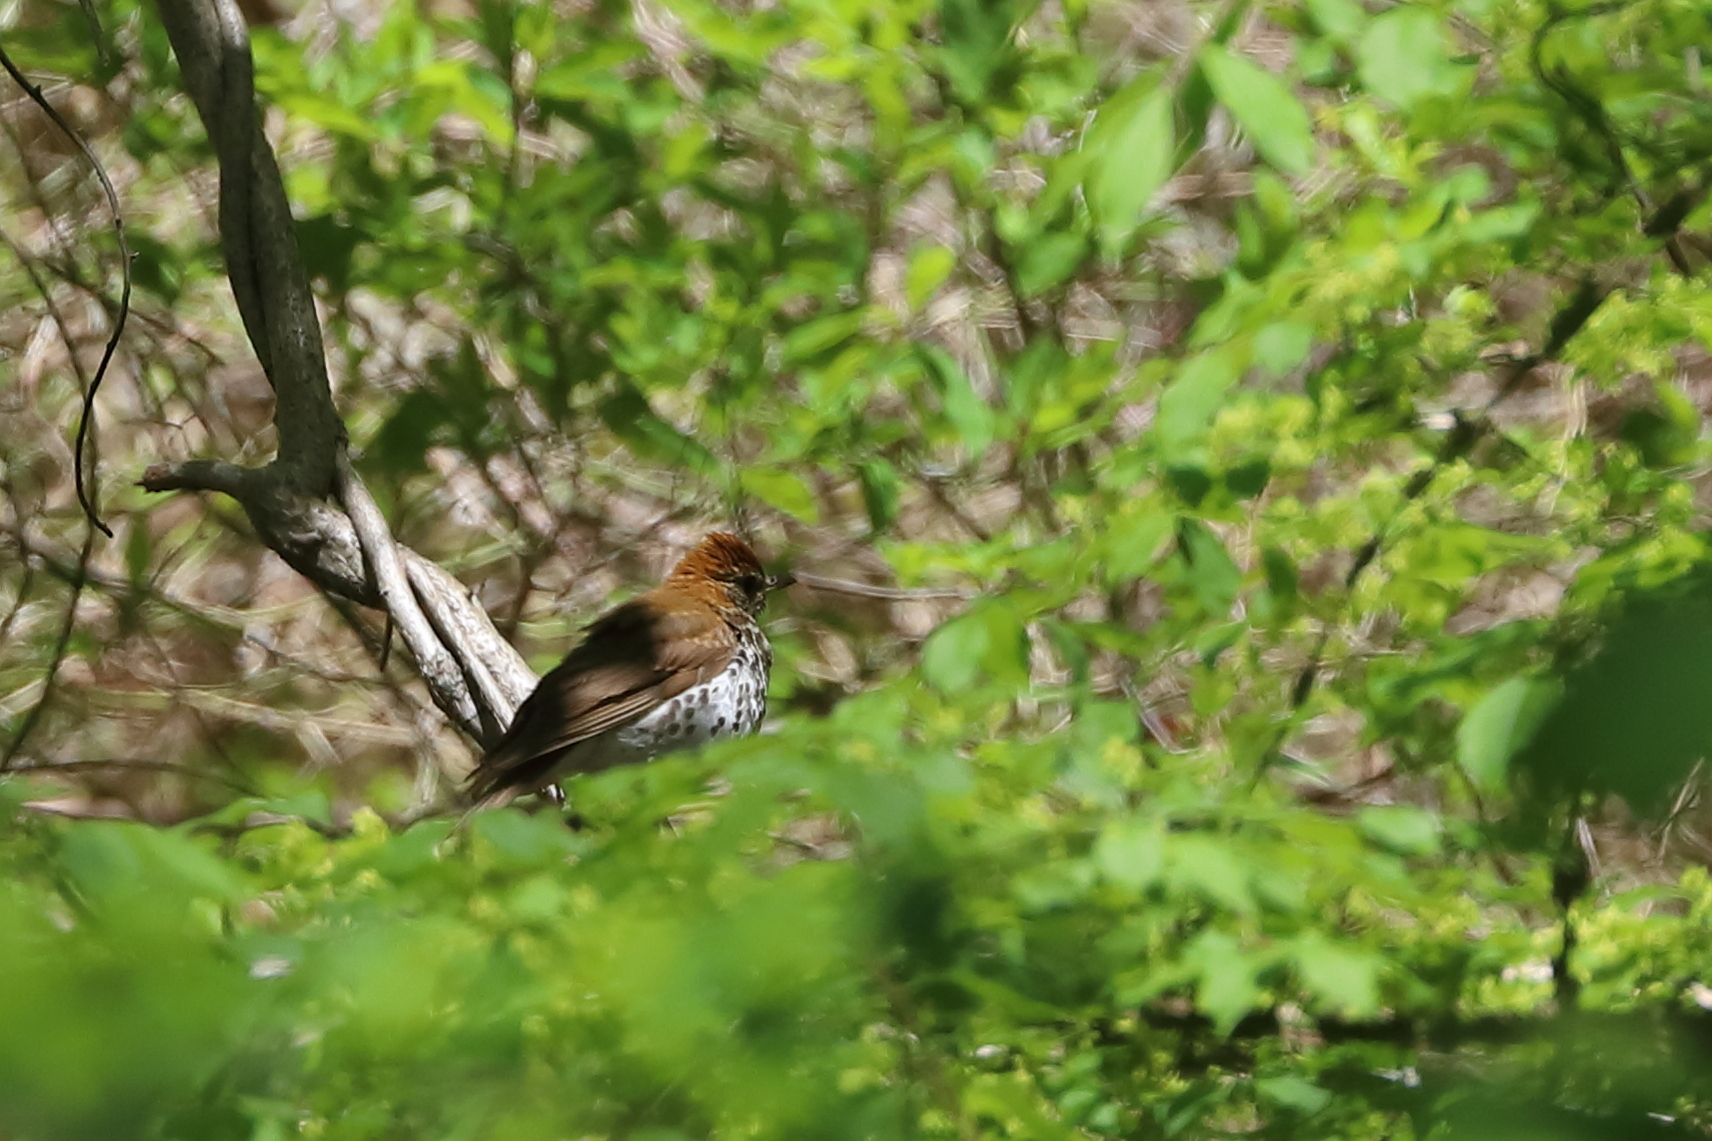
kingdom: Animalia
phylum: Chordata
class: Aves
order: Passeriformes
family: Turdidae
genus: Hylocichla
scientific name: Hylocichla mustelina
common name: Wood thrush
